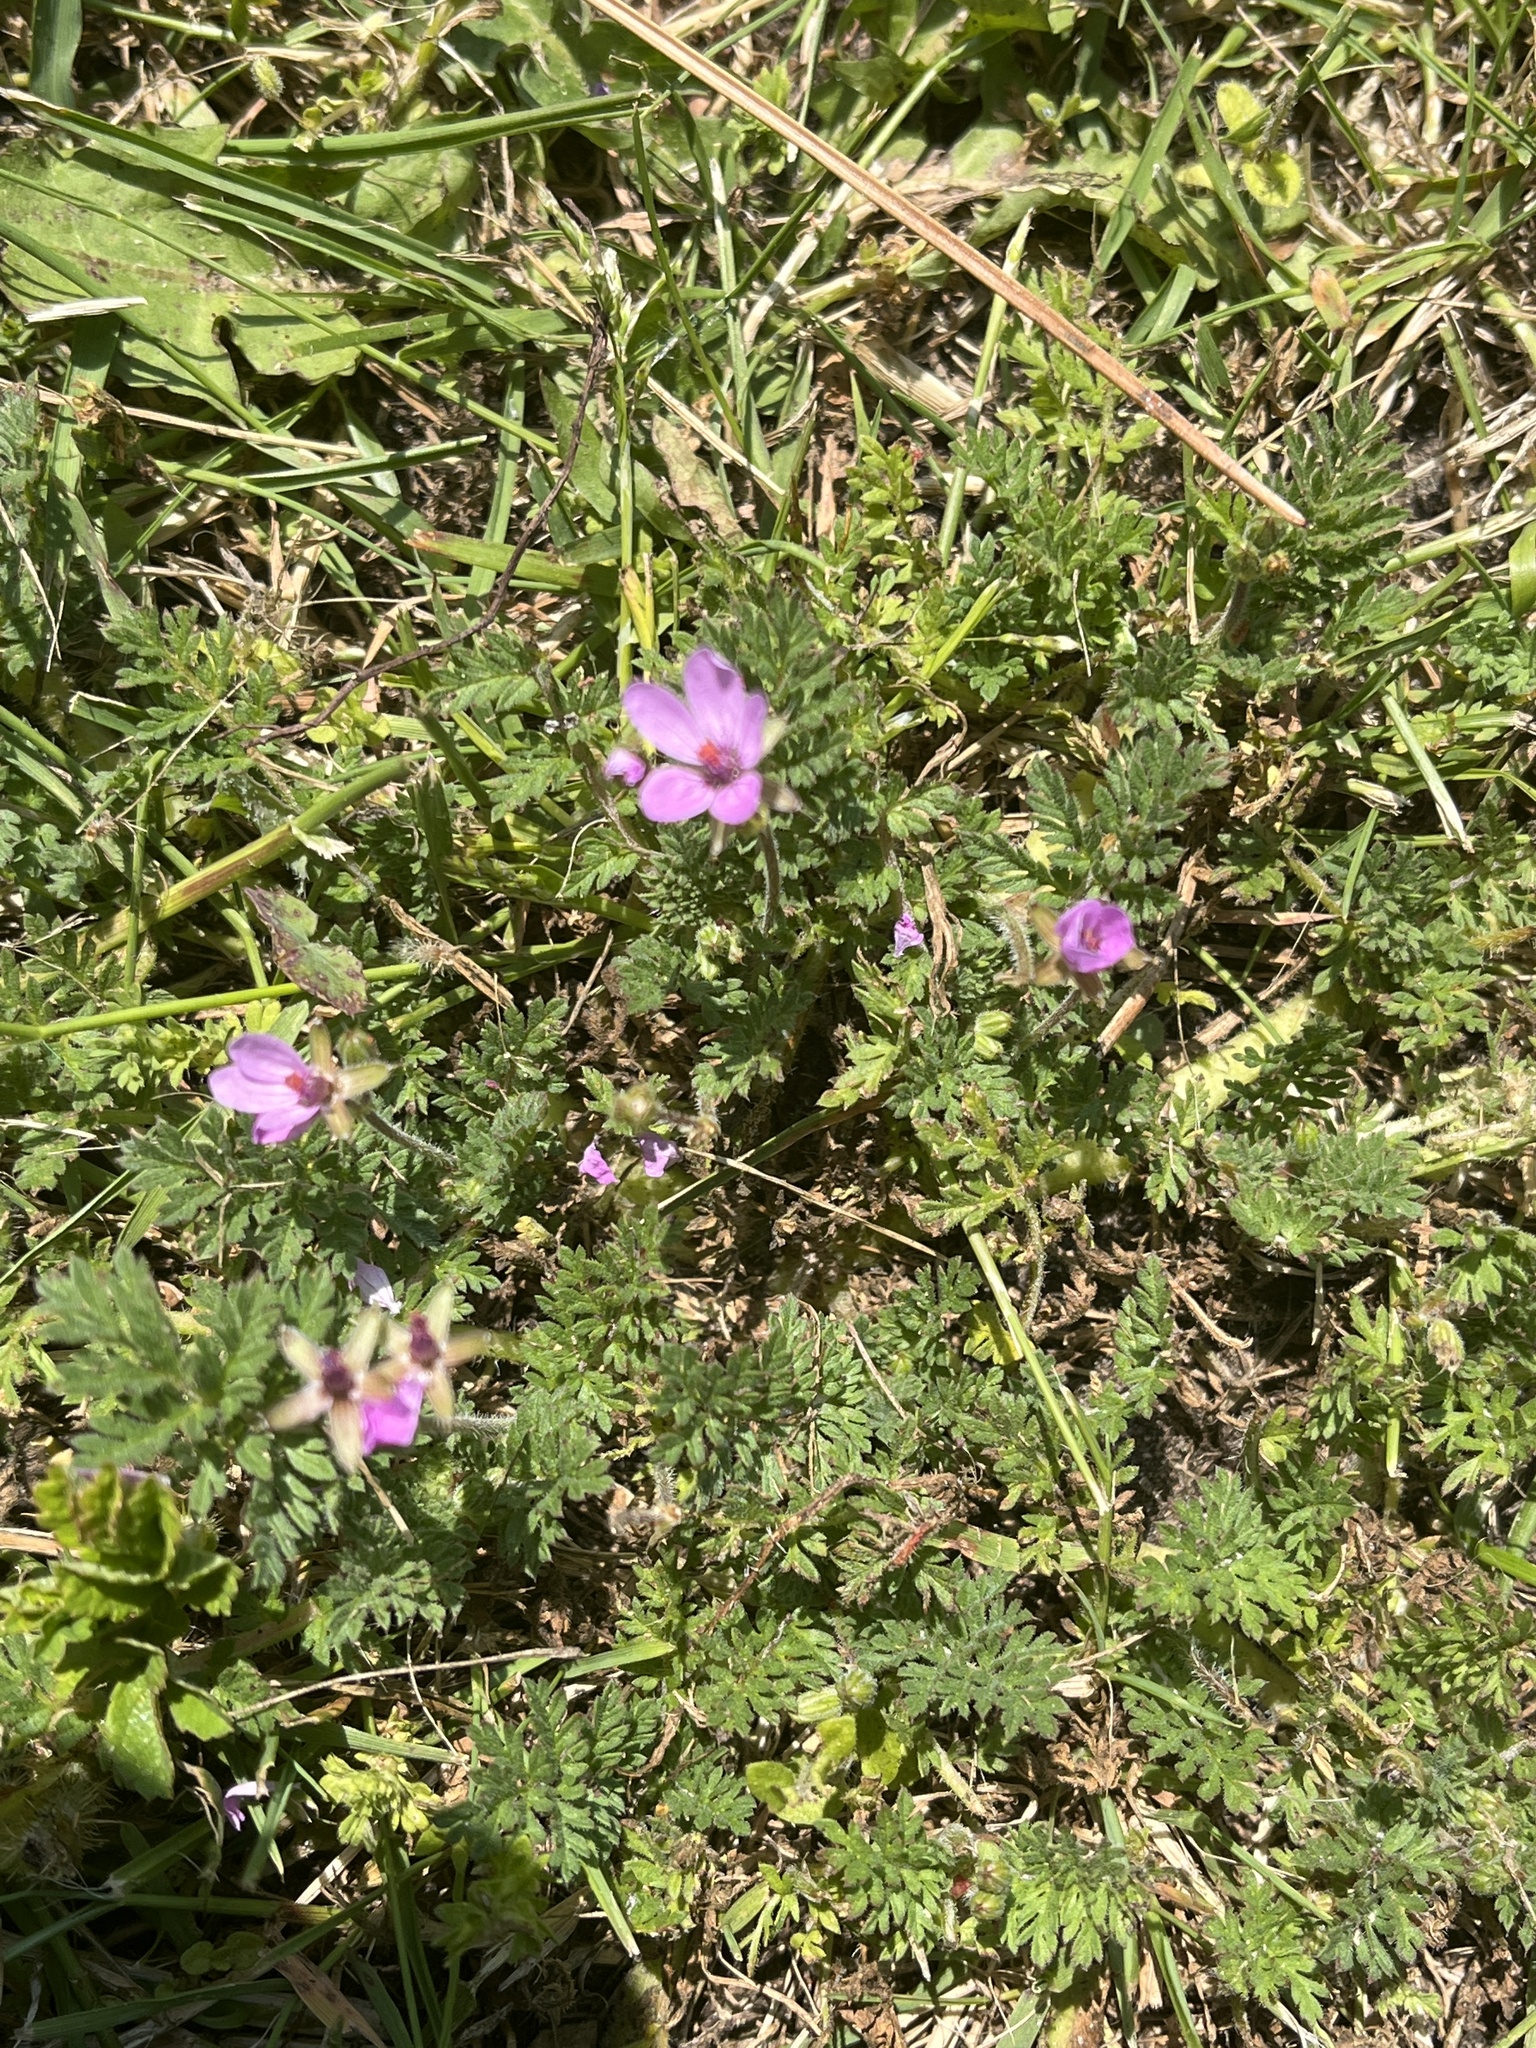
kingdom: Plantae
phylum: Tracheophyta
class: Magnoliopsida
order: Geraniales
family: Geraniaceae
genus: Erodium
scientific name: Erodium cicutarium
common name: Common stork's-bill
